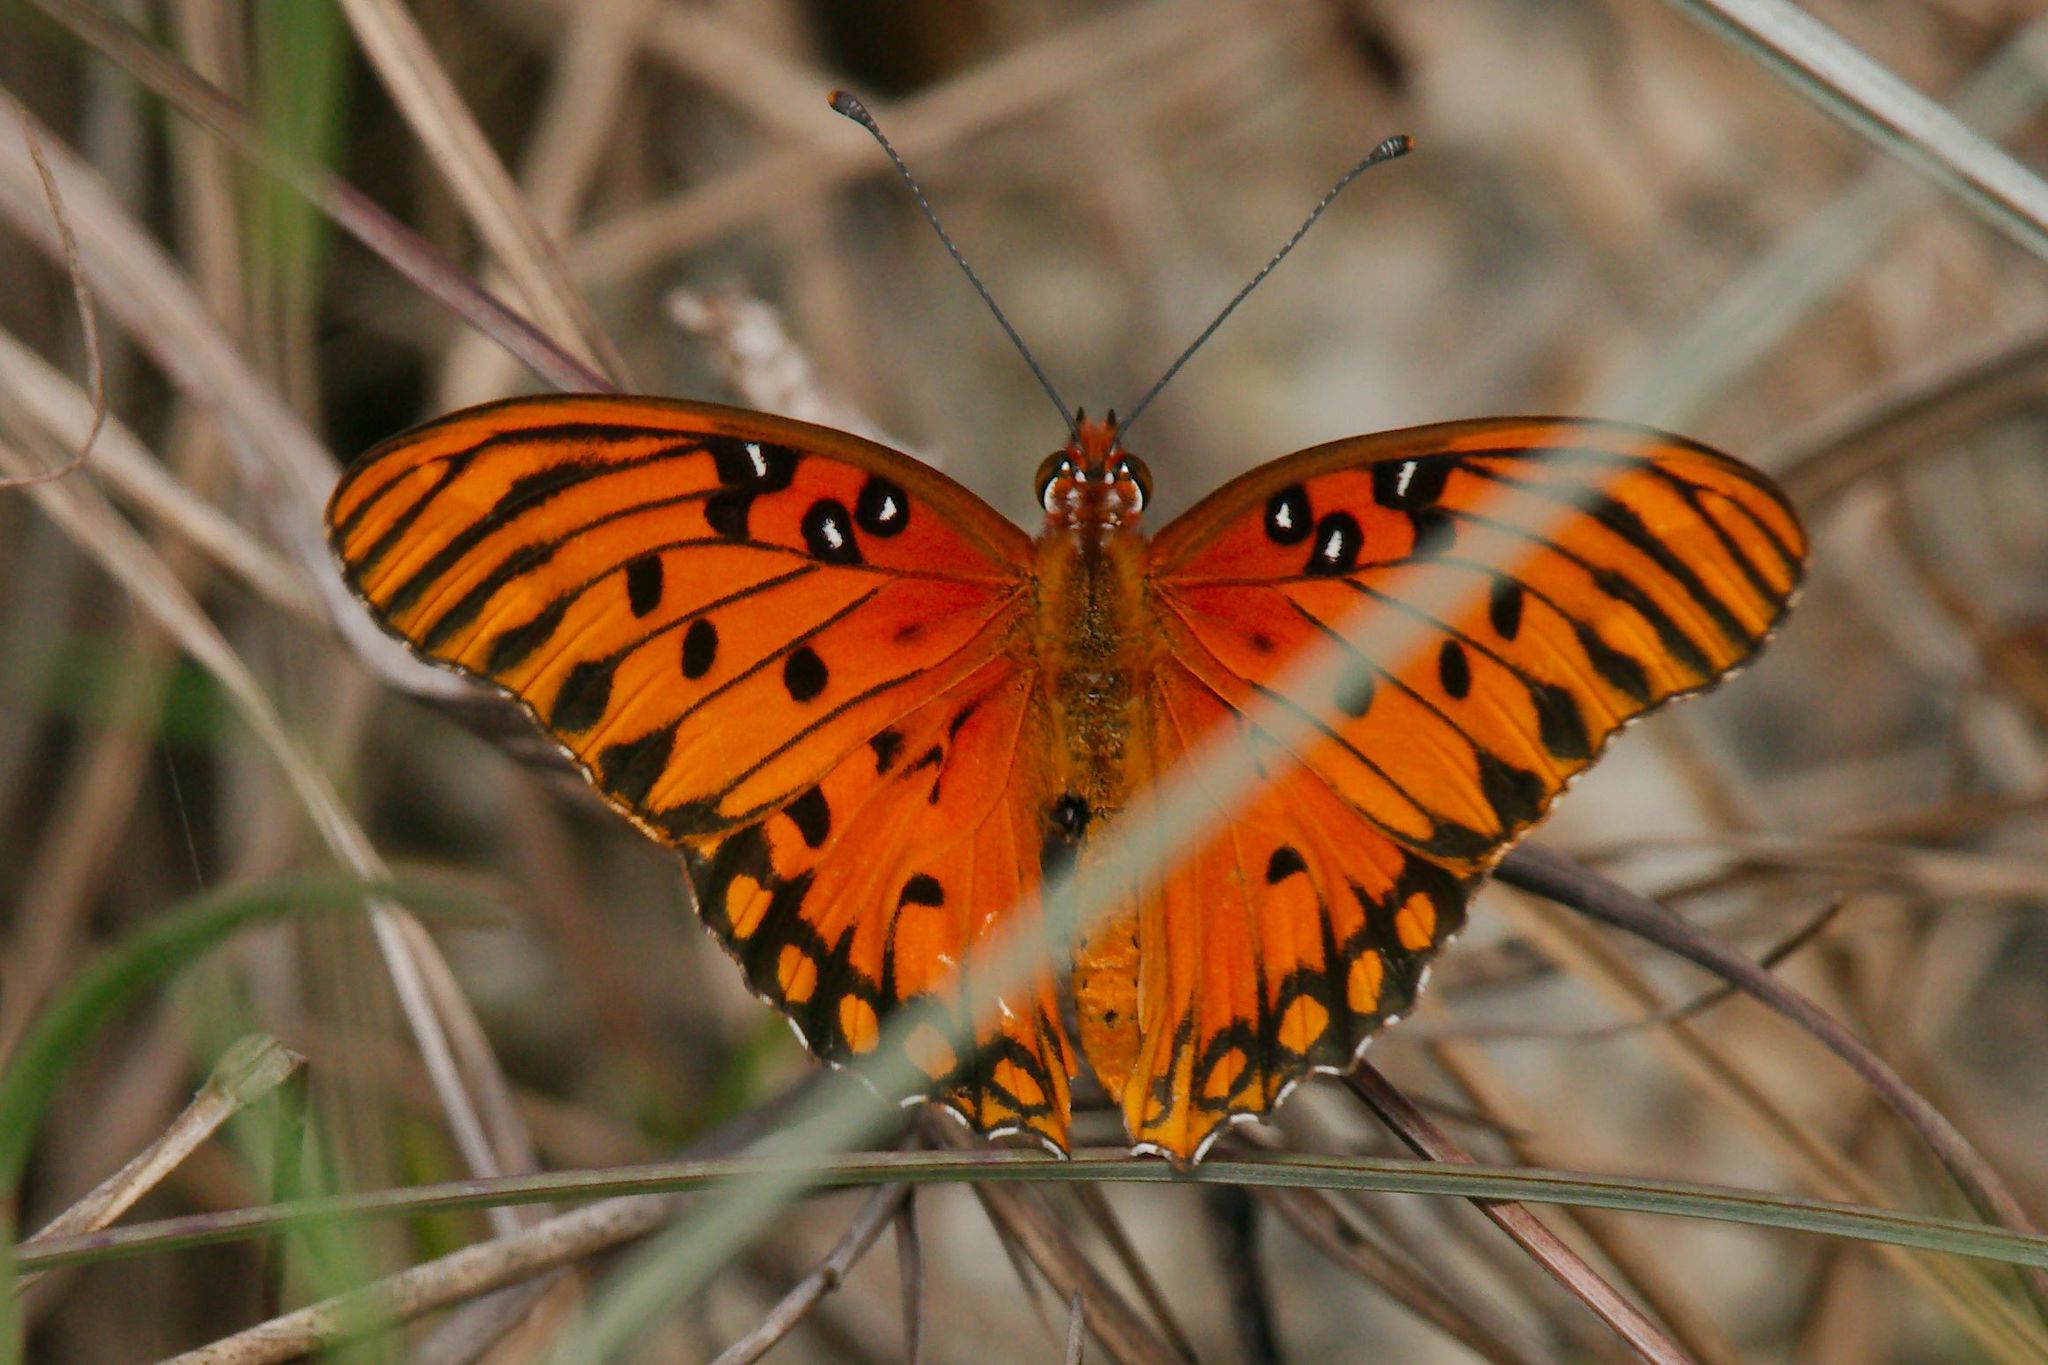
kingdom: Animalia
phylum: Arthropoda
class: Insecta
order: Lepidoptera
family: Nymphalidae
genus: Dione
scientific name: Dione vanillae
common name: Gulf fritillary
